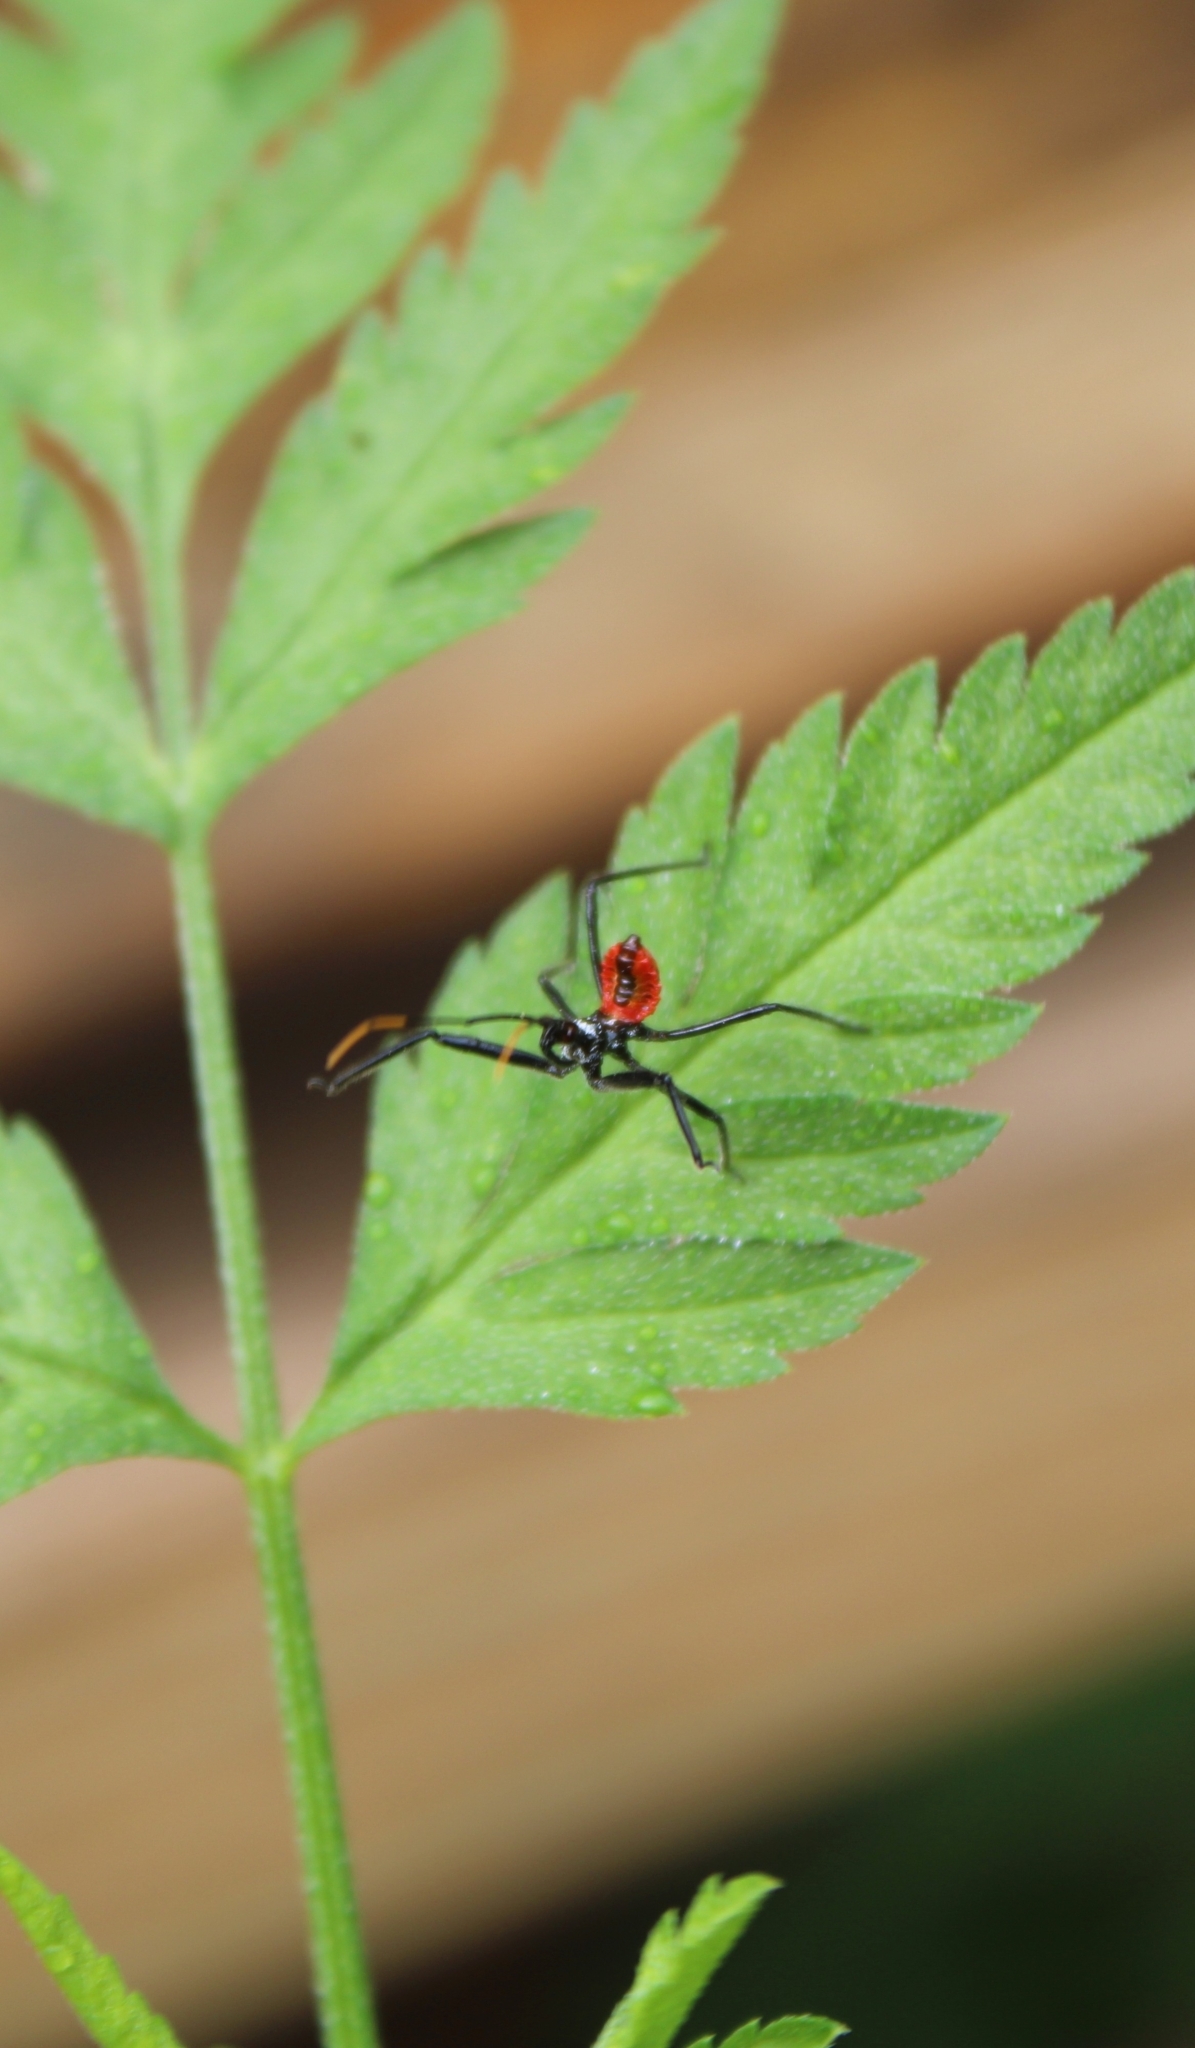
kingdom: Animalia
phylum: Arthropoda
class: Insecta
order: Hemiptera
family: Reduviidae
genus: Arilus
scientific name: Arilus cristatus
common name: North american wheel bug
